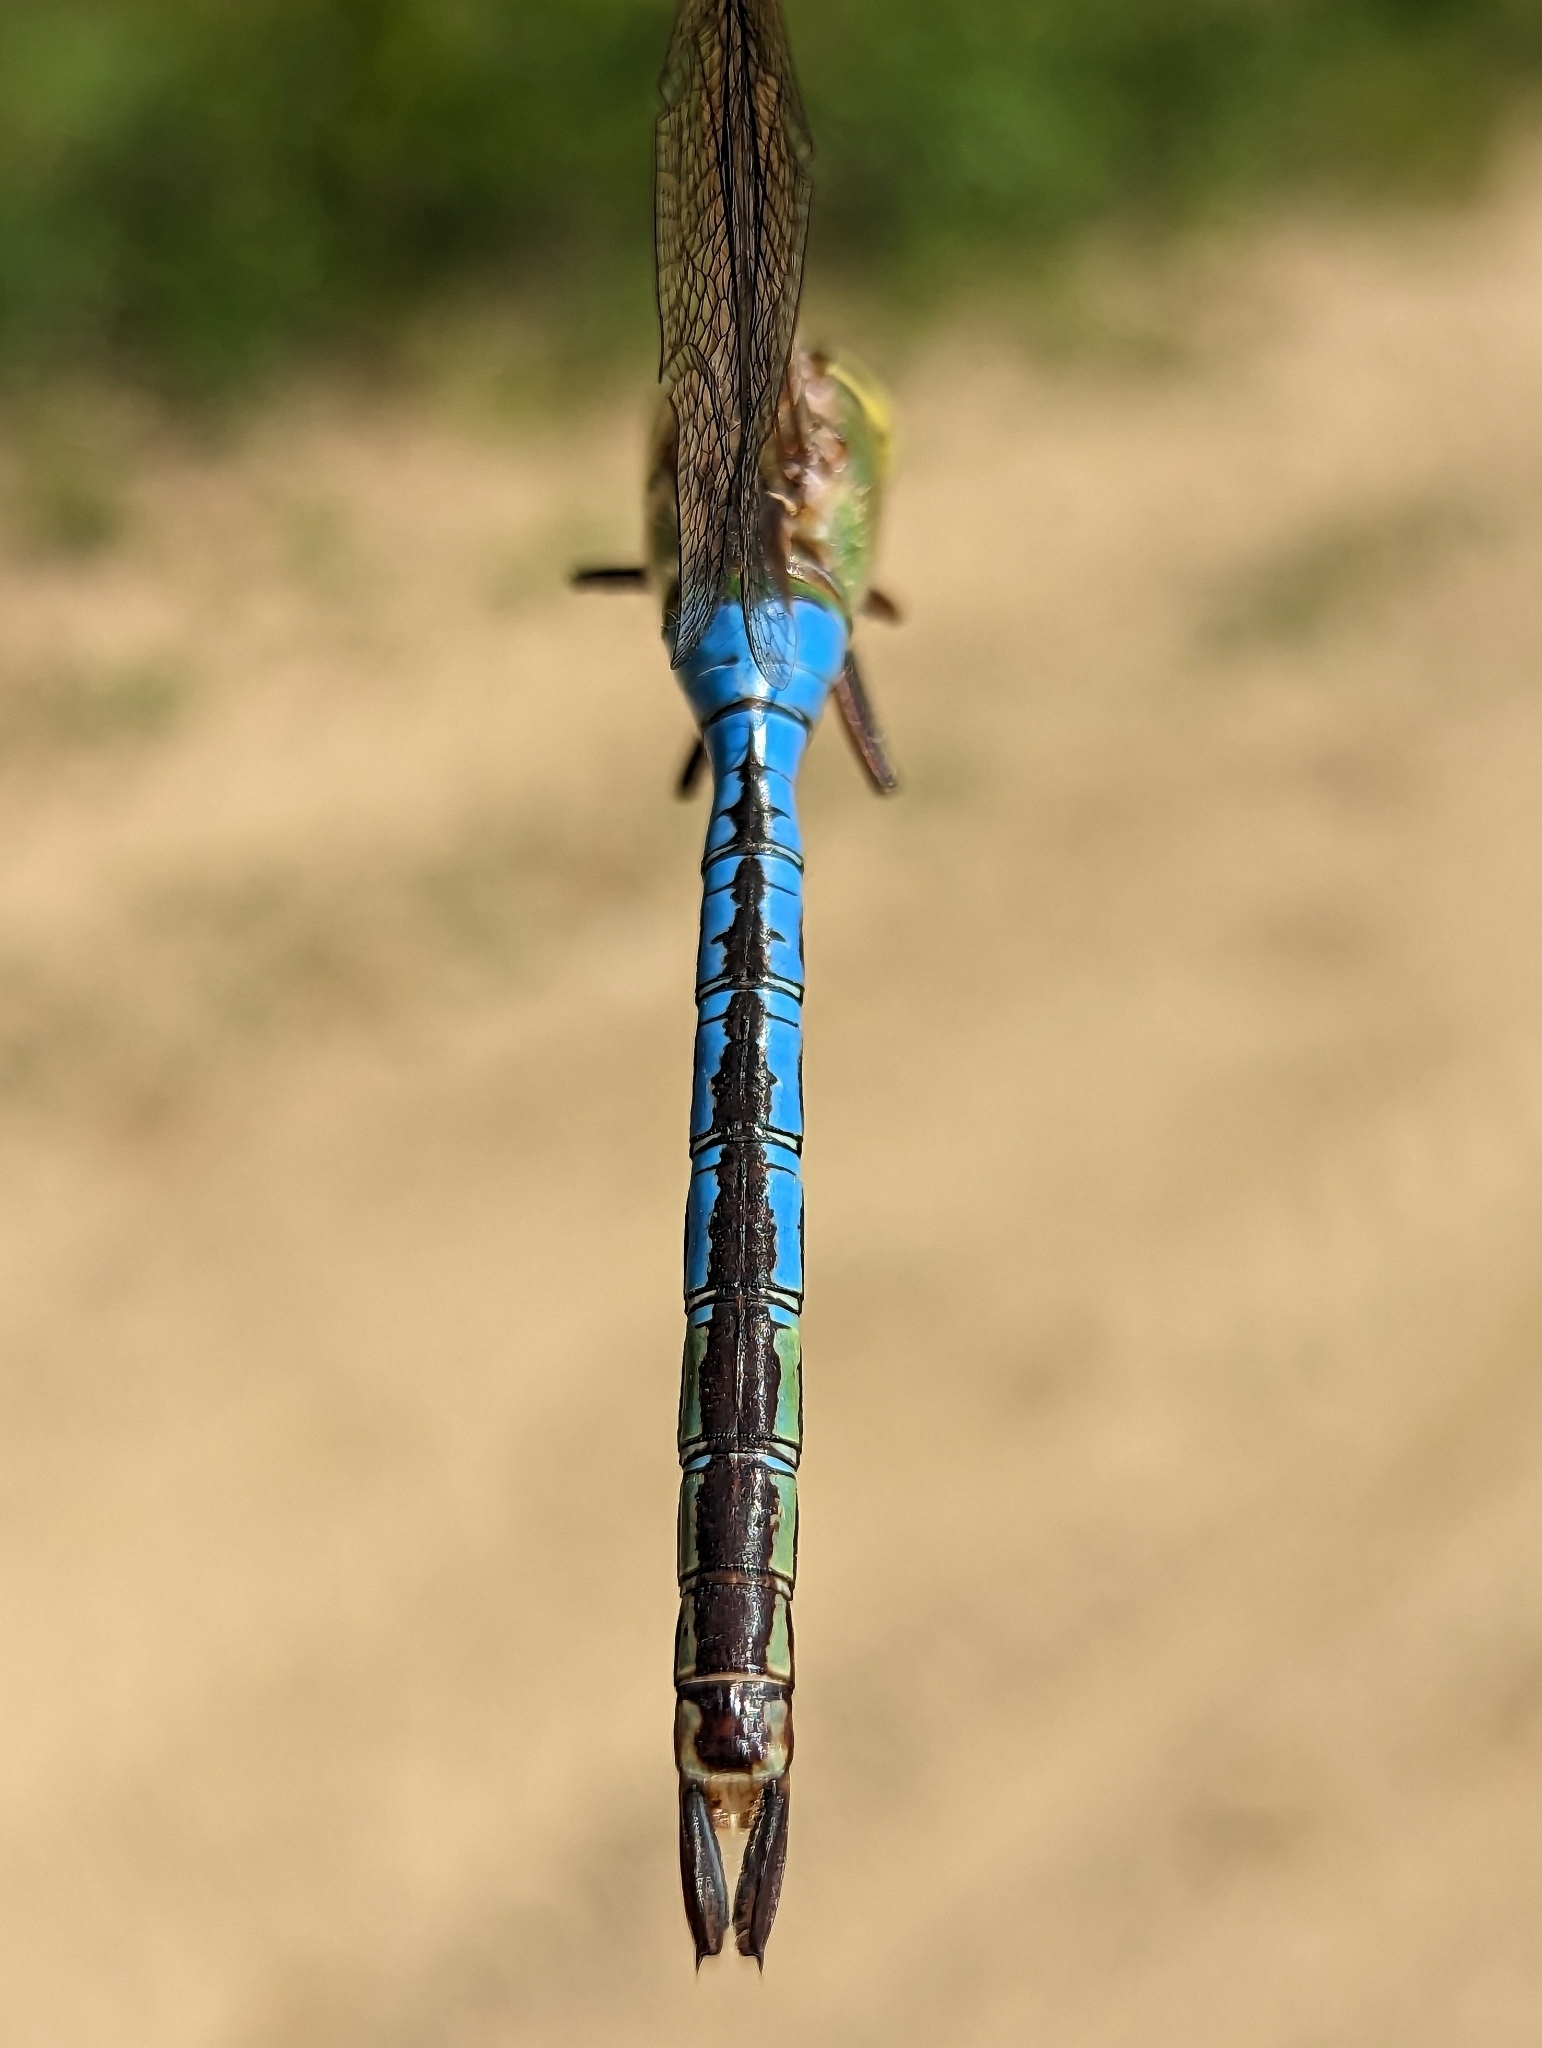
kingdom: Animalia
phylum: Arthropoda
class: Insecta
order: Odonata
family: Aeshnidae
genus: Anax
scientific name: Anax junius
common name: Common green darner
